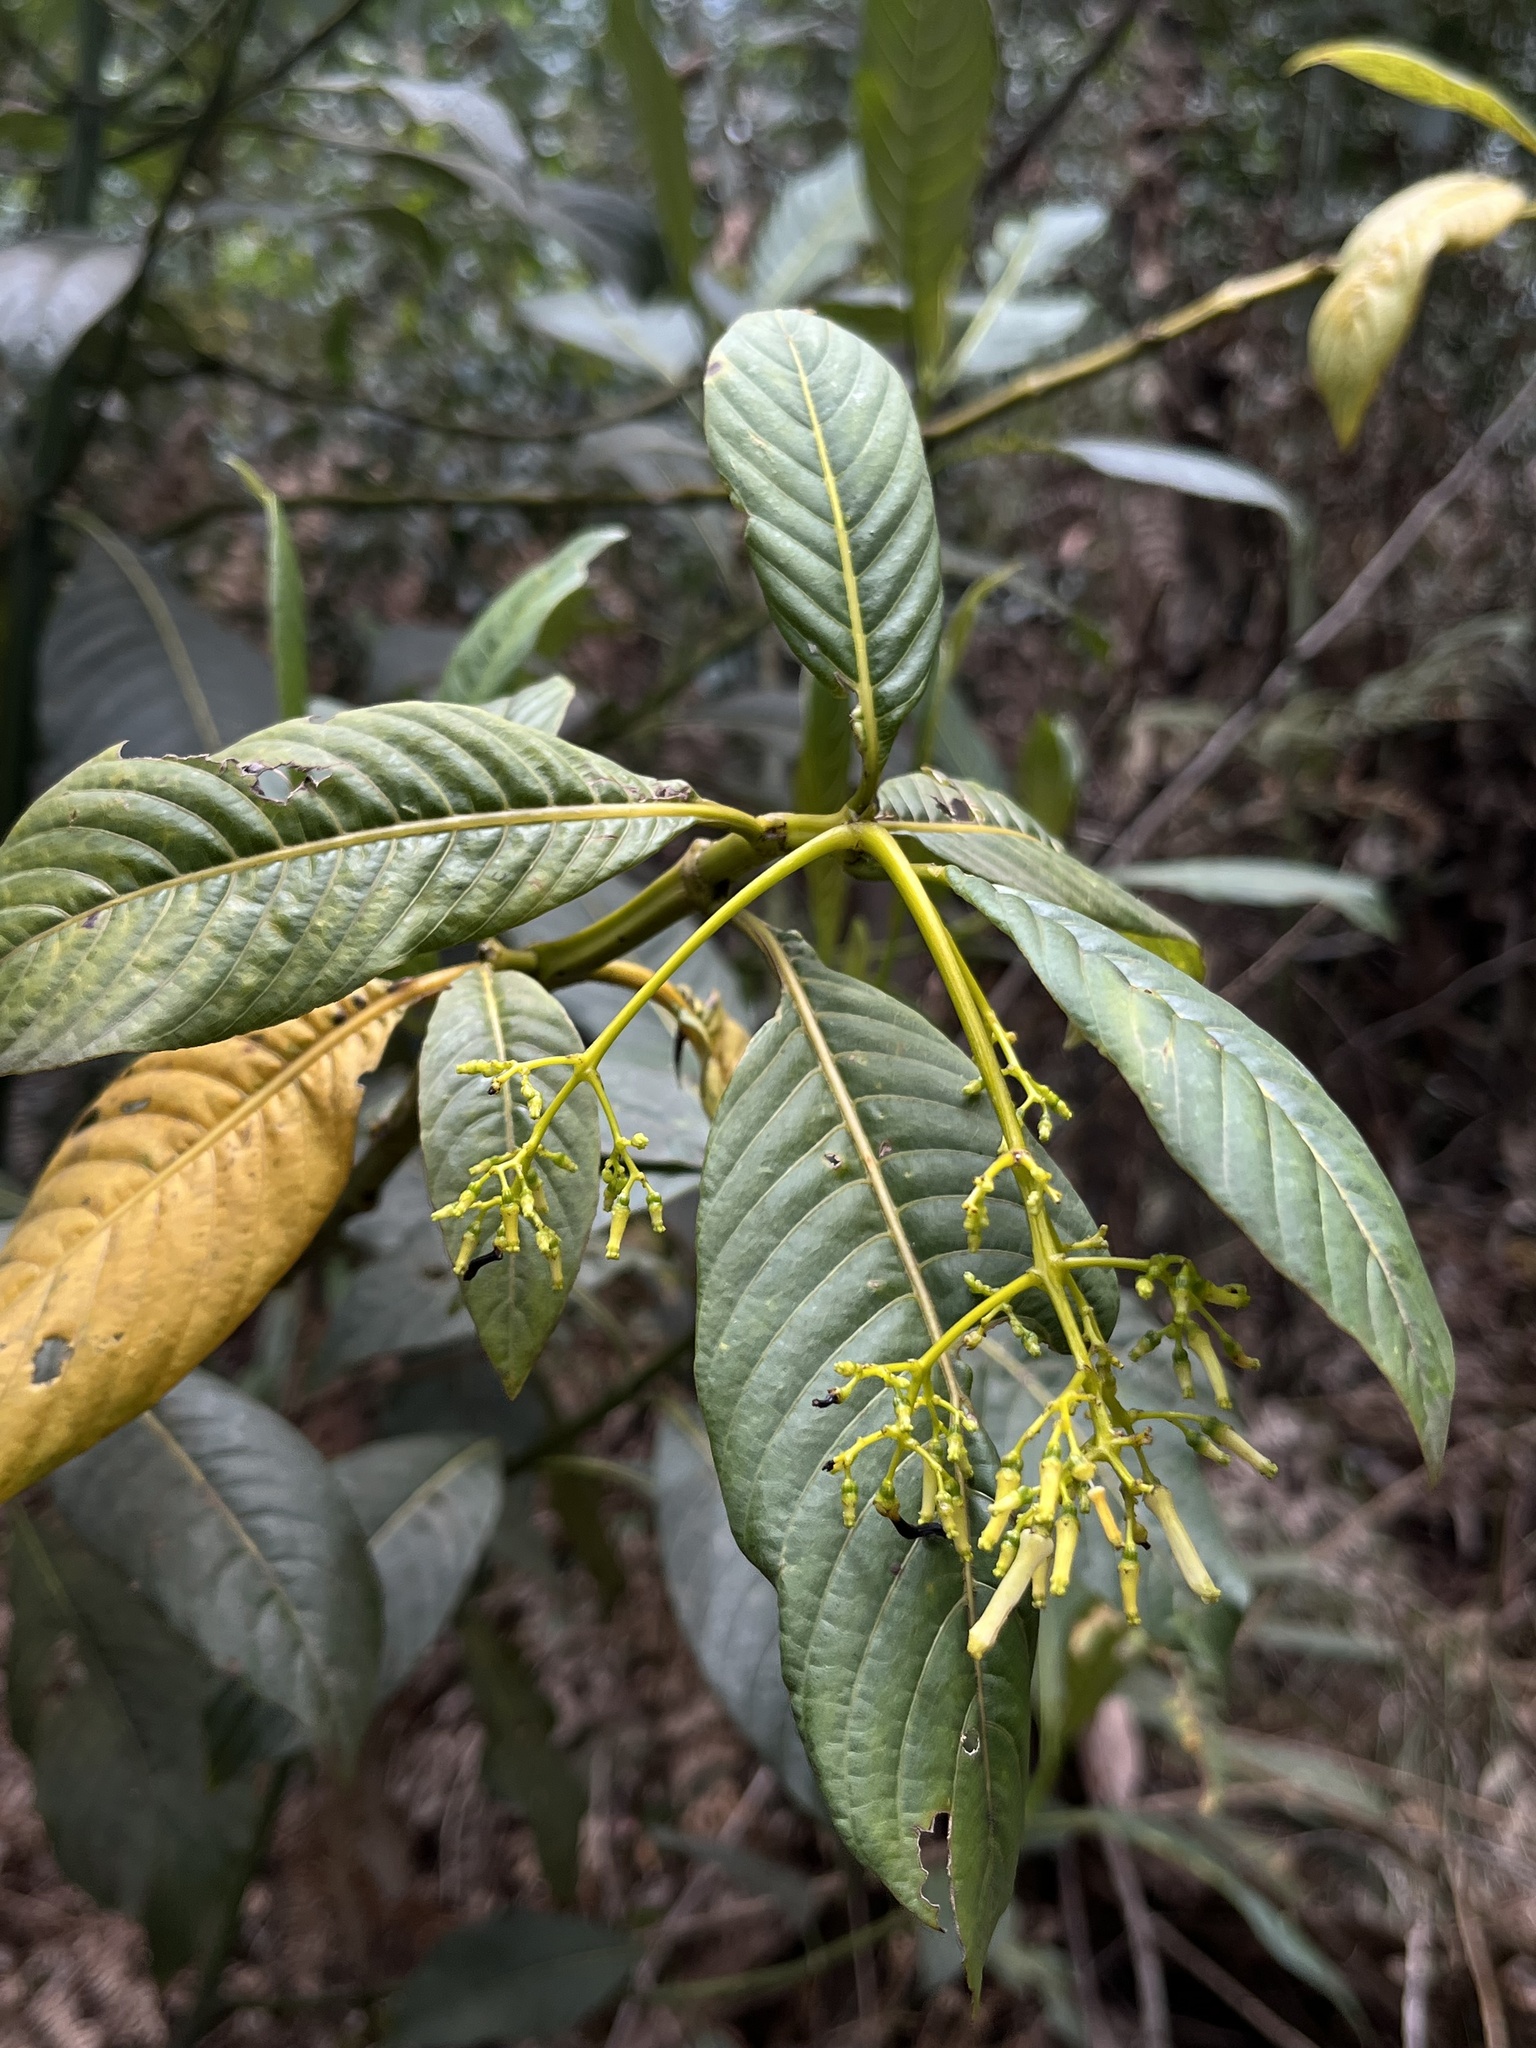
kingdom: Plantae
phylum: Tracheophyta
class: Magnoliopsida
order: Gentianales
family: Rubiaceae
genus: Palicourea
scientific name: Palicourea lineariflora
